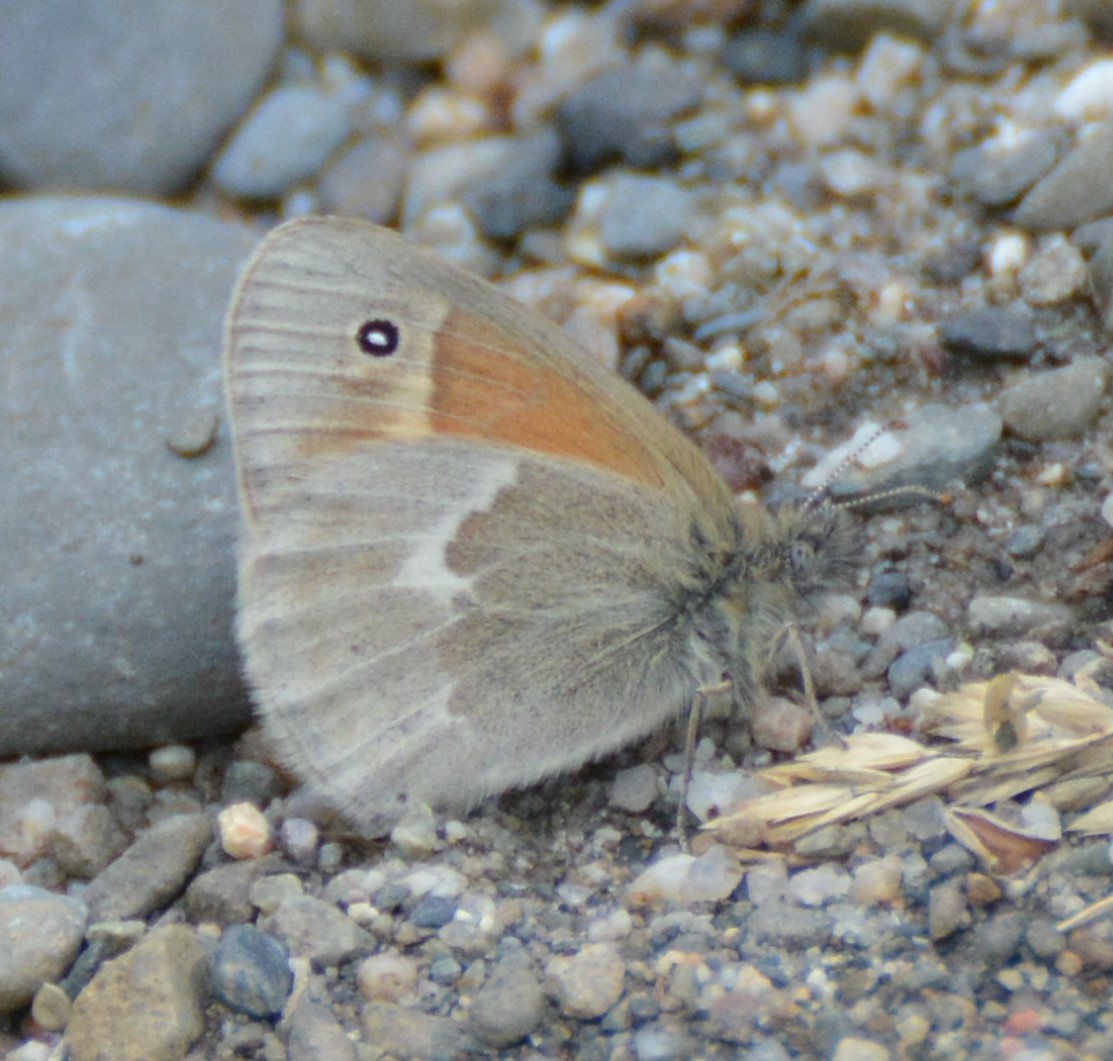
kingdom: Animalia
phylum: Arthropoda
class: Insecta
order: Lepidoptera
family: Nymphalidae
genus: Coenonympha
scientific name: Coenonympha california
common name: Common ringlet
